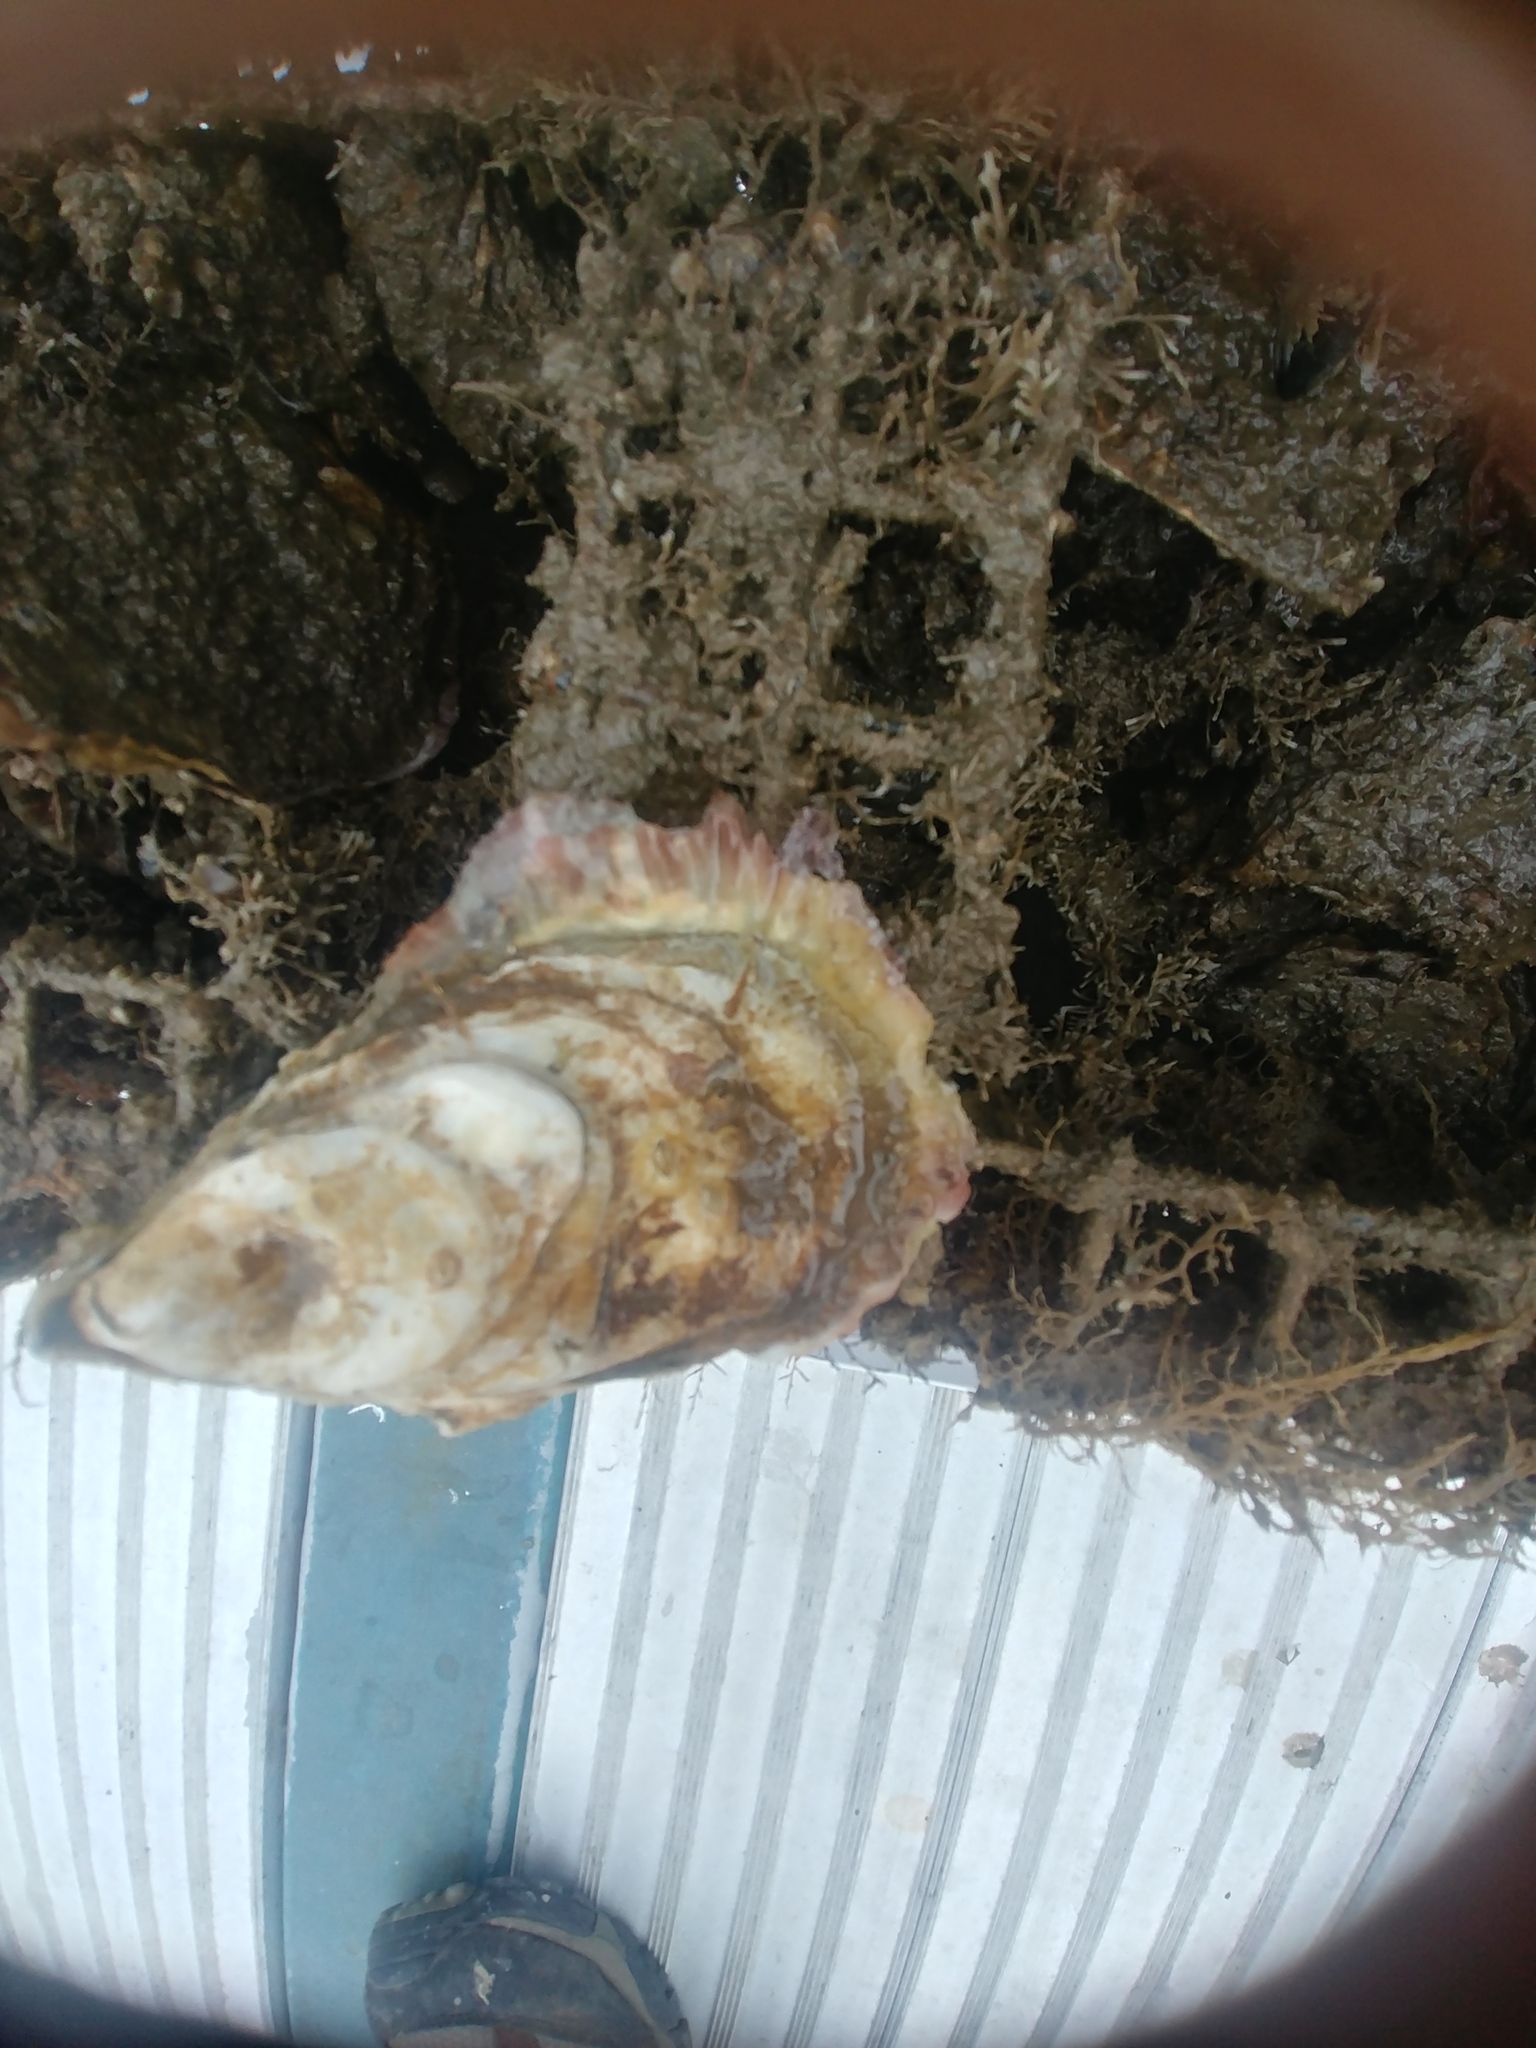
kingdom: Animalia
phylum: Mollusca
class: Bivalvia
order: Ostreida
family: Ostreidae
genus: Crassostrea
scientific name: Crassostrea virginica
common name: American oyster
